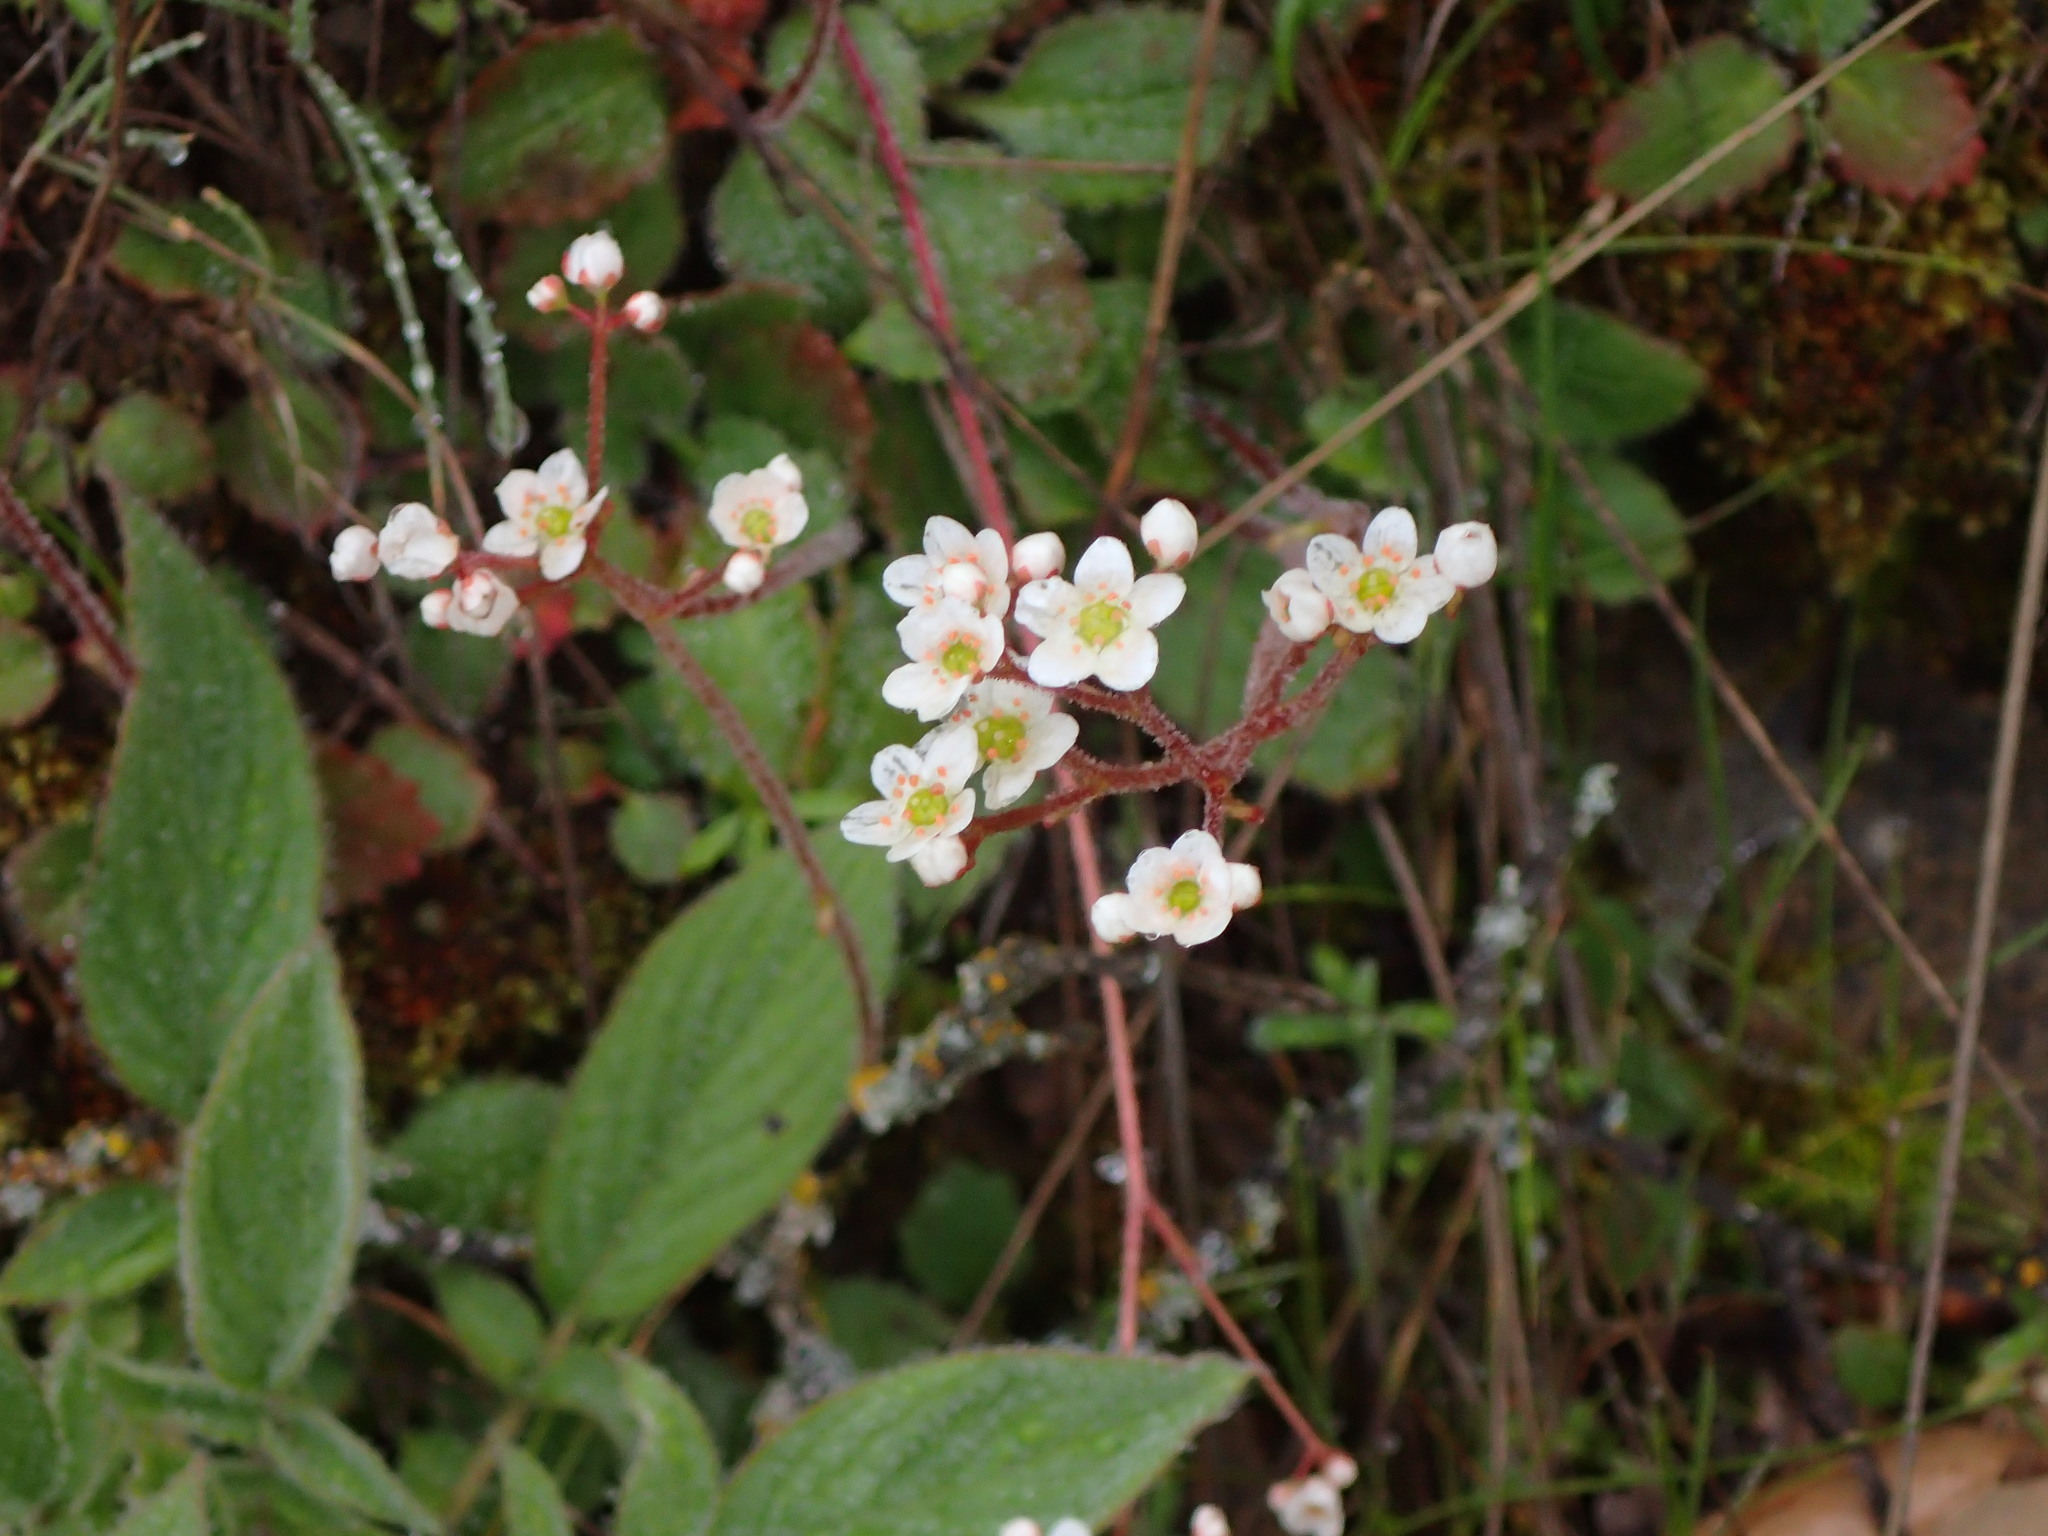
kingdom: Plantae
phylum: Tracheophyta
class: Magnoliopsida
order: Saxifragales
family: Saxifragaceae
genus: Micranthes
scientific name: Micranthes californica
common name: California saxifrage
